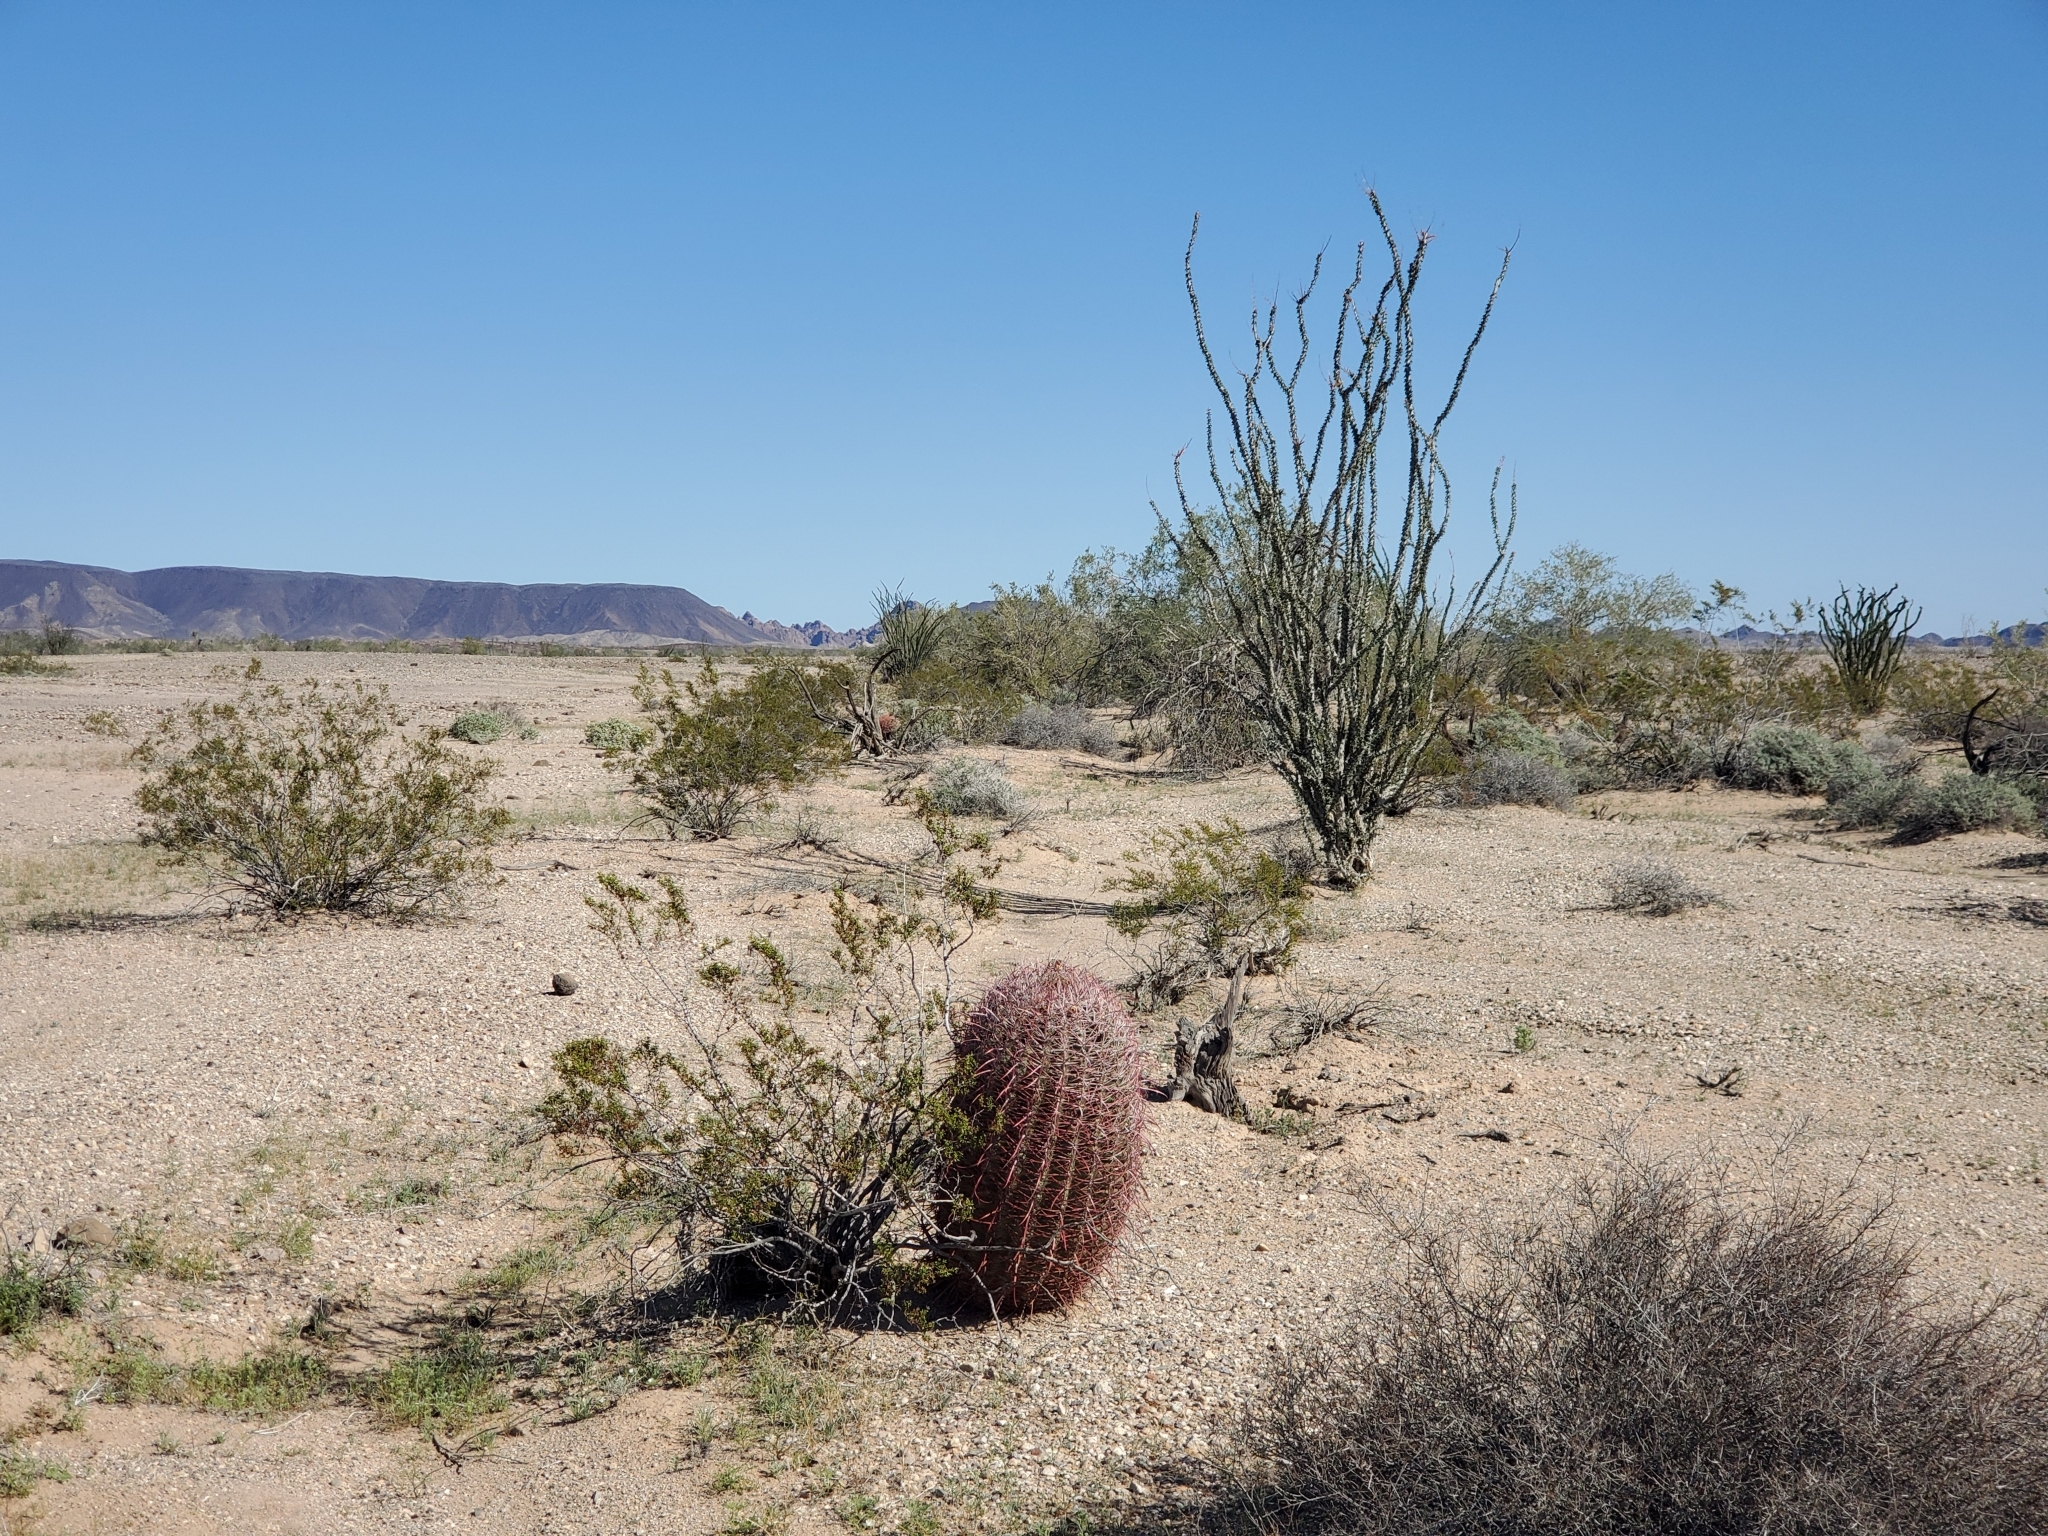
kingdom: Plantae
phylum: Tracheophyta
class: Magnoliopsida
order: Caryophyllales
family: Cactaceae
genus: Ferocactus
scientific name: Ferocactus cylindraceus
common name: California barrel cactus
